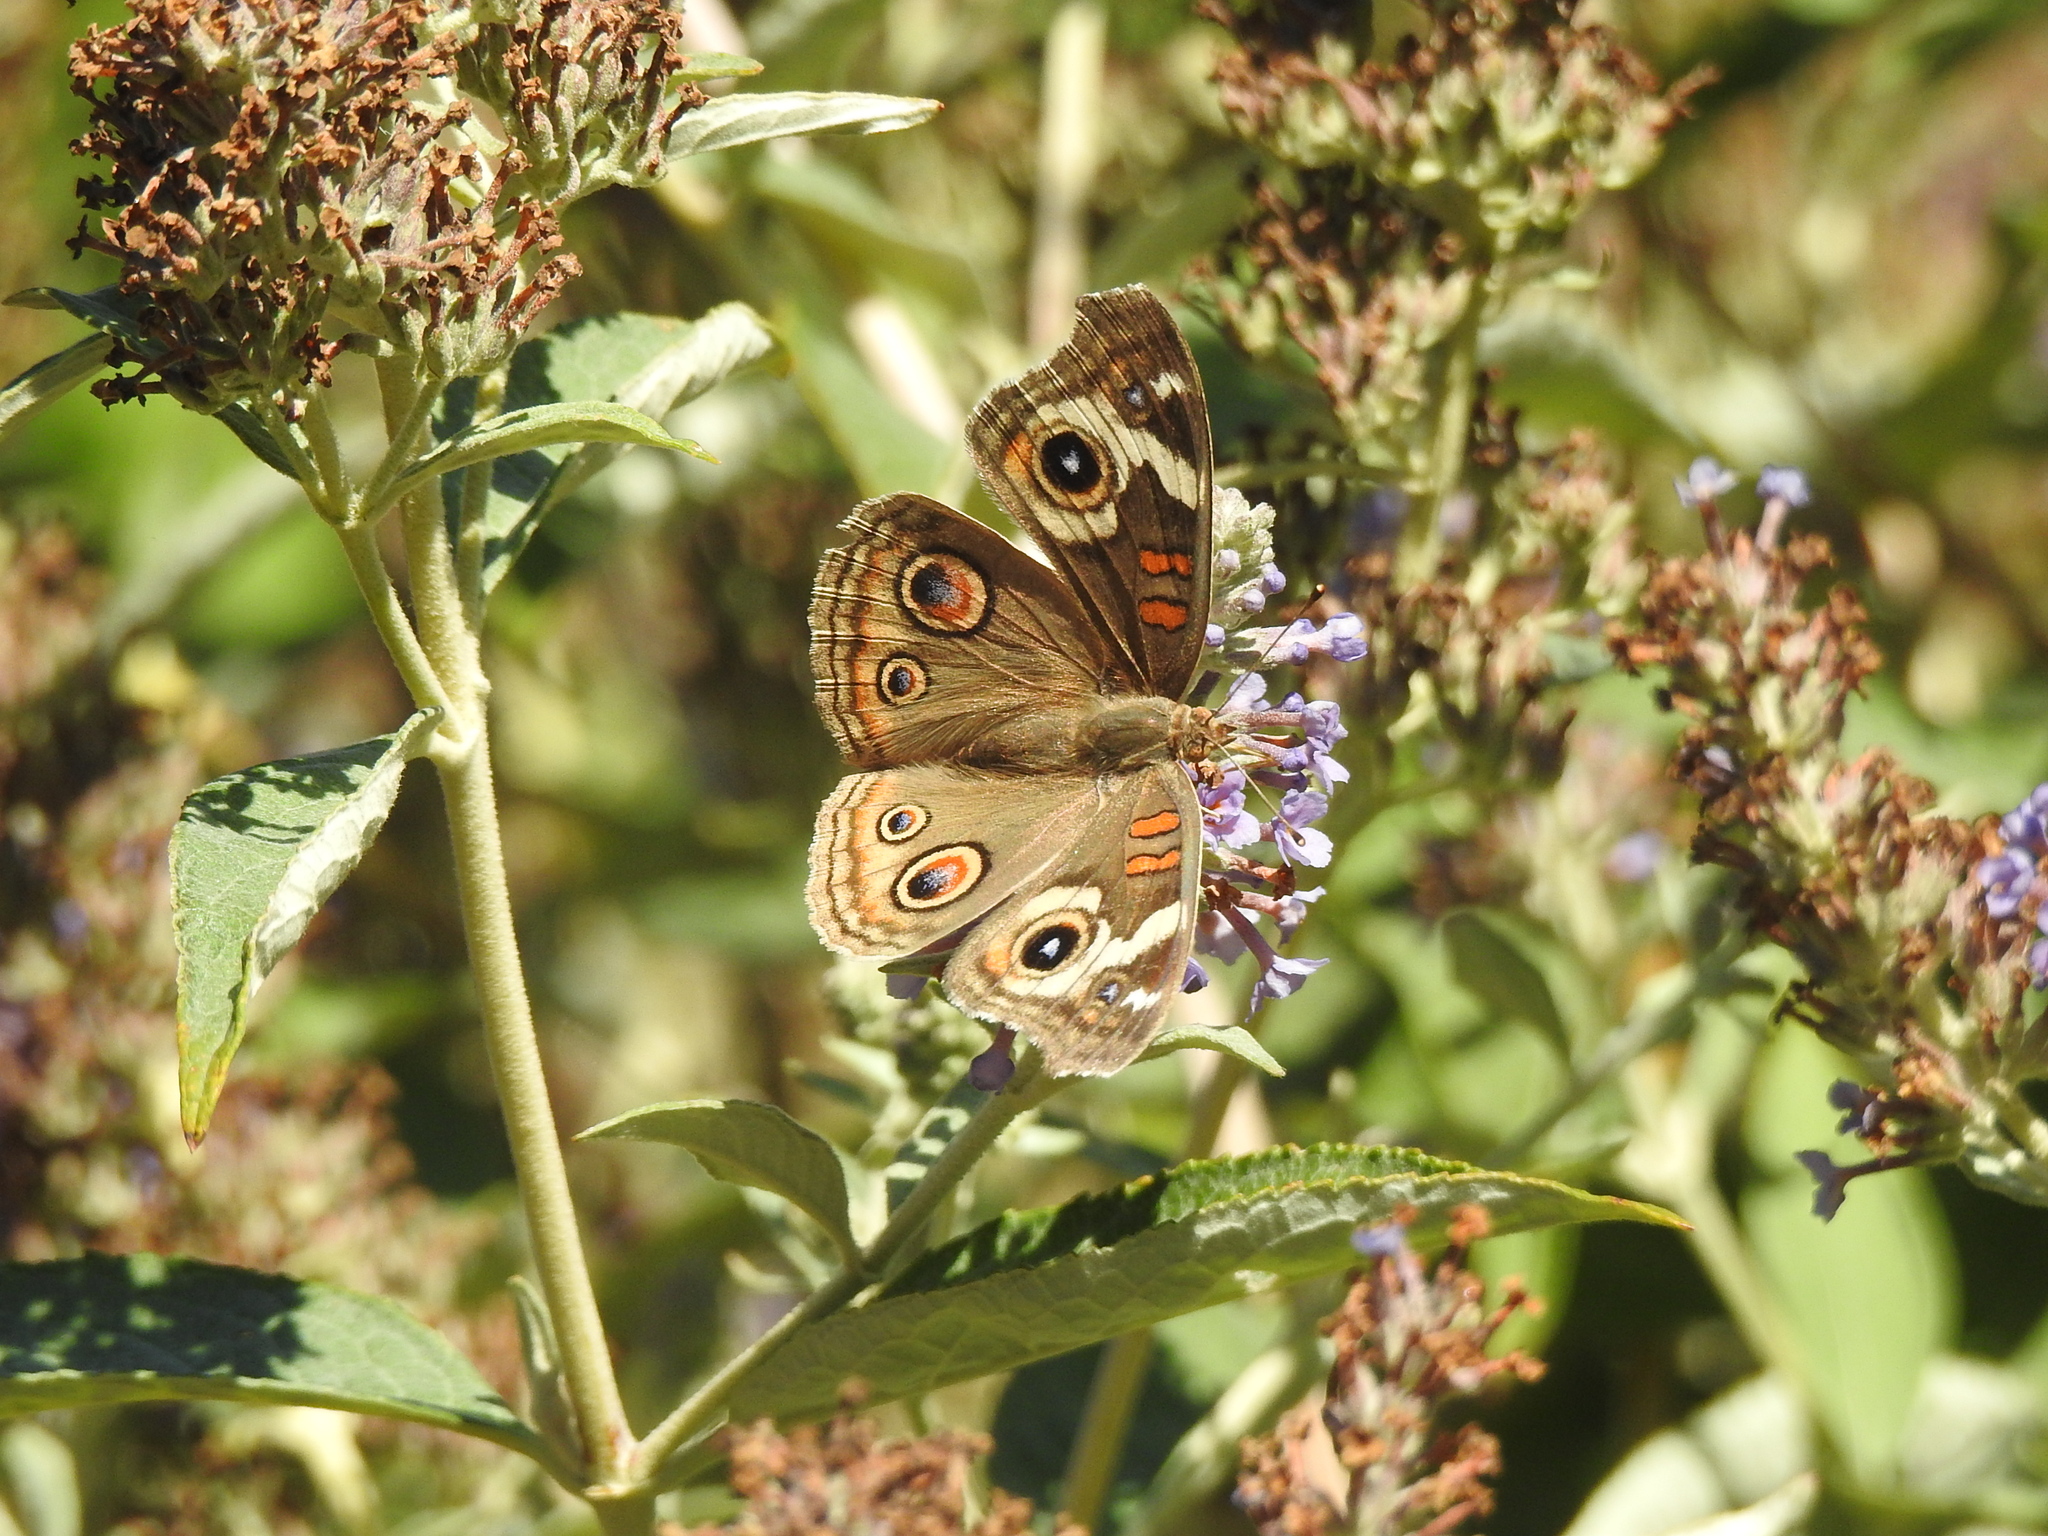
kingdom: Animalia
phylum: Arthropoda
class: Insecta
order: Lepidoptera
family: Nymphalidae
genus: Junonia
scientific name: Junonia grisea
